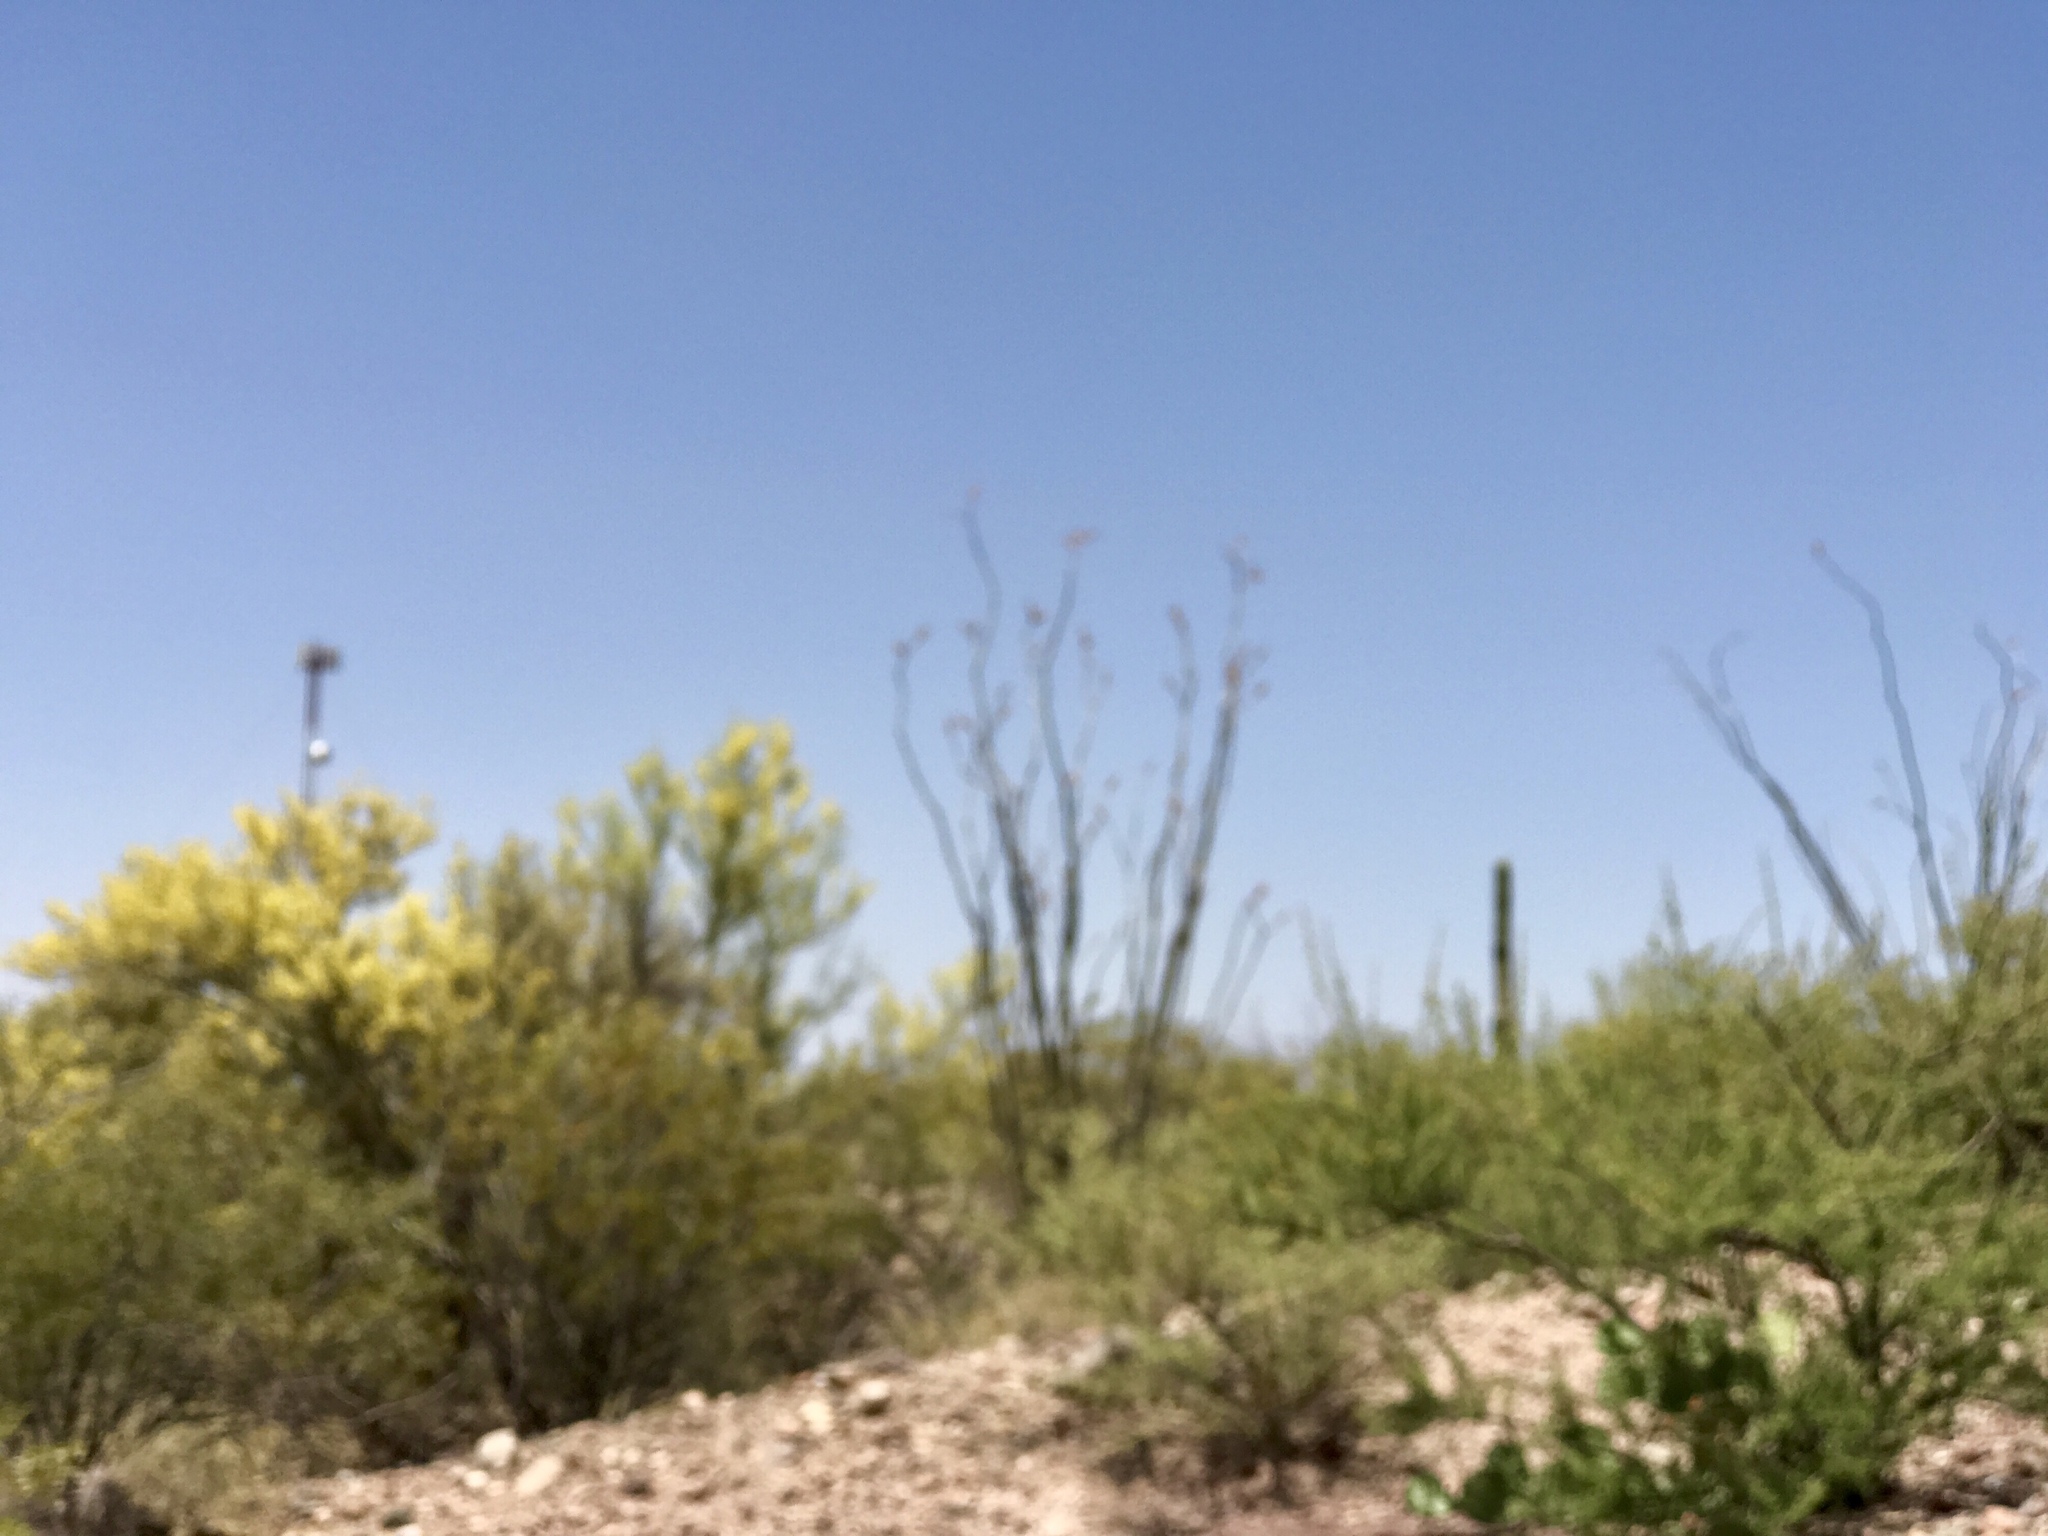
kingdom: Plantae
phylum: Tracheophyta
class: Magnoliopsida
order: Ericales
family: Fouquieriaceae
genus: Fouquieria
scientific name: Fouquieria splendens
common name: Vine-cactus
